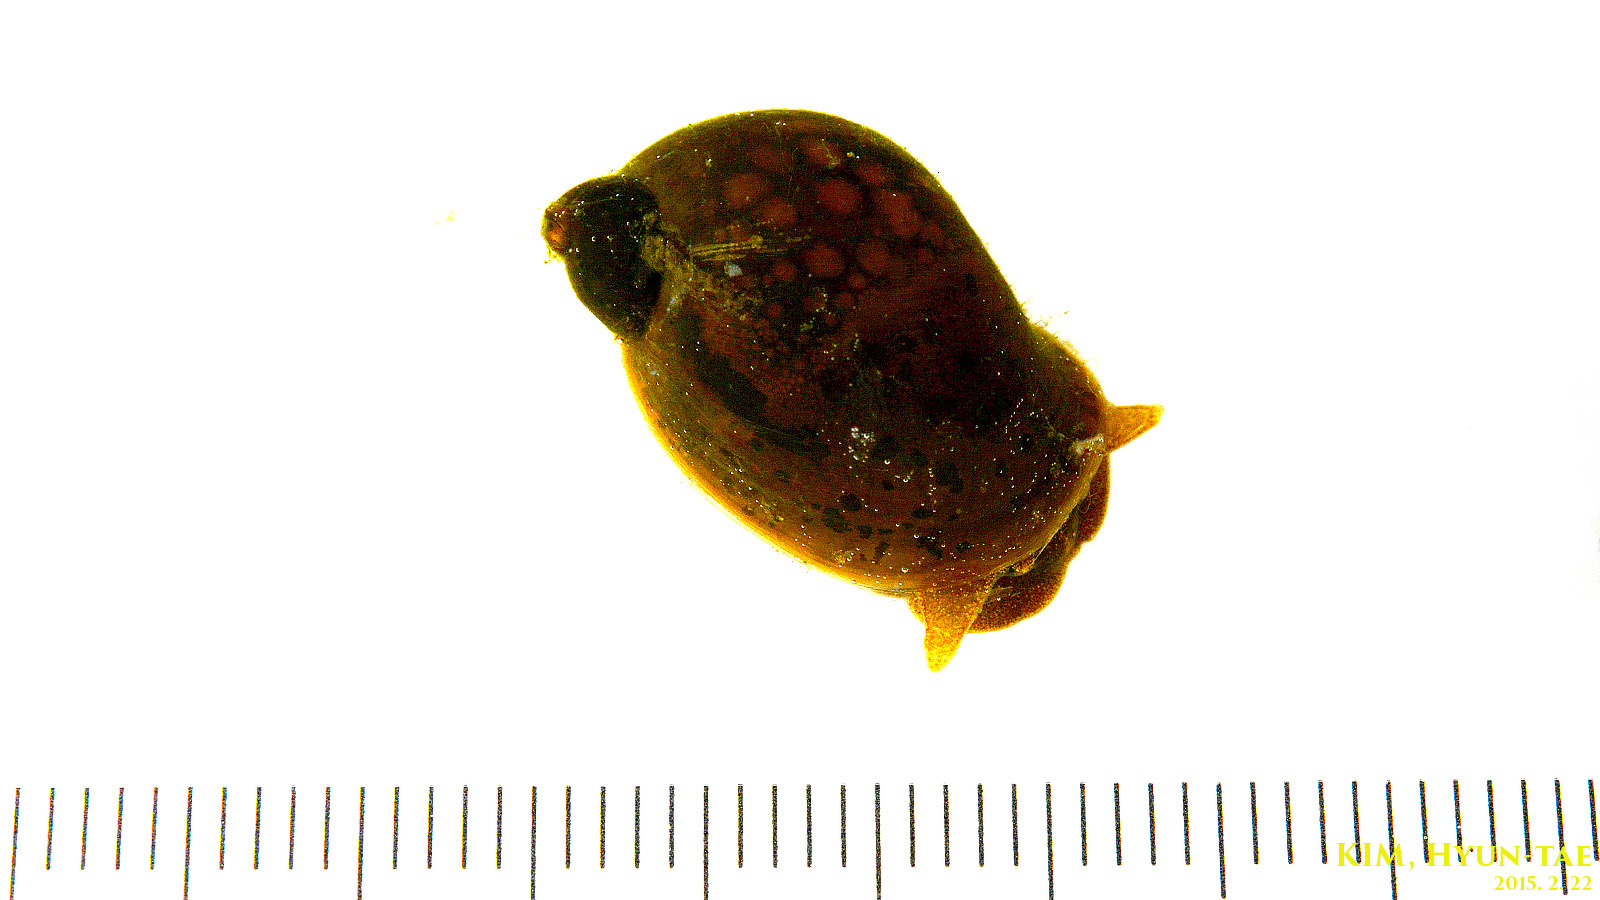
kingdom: Animalia
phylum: Mollusca
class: Gastropoda
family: Lymnaeidae
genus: Radix
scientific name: Radix auricularia
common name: Ear pond snail
